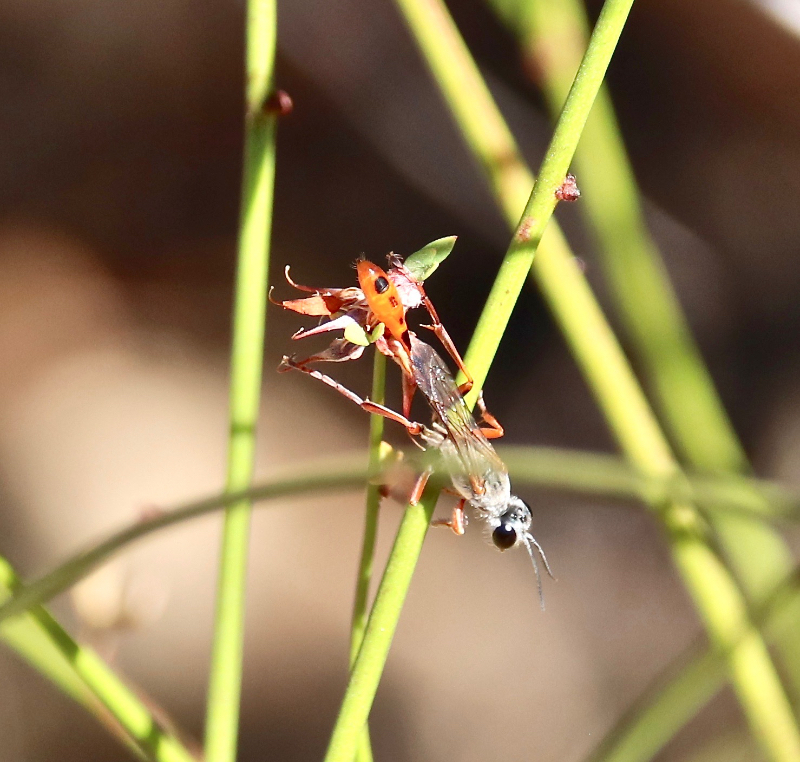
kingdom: Animalia
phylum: Arthropoda
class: Insecta
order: Hymenoptera
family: Sphecidae
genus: Ammophila
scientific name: Ammophila aberti
